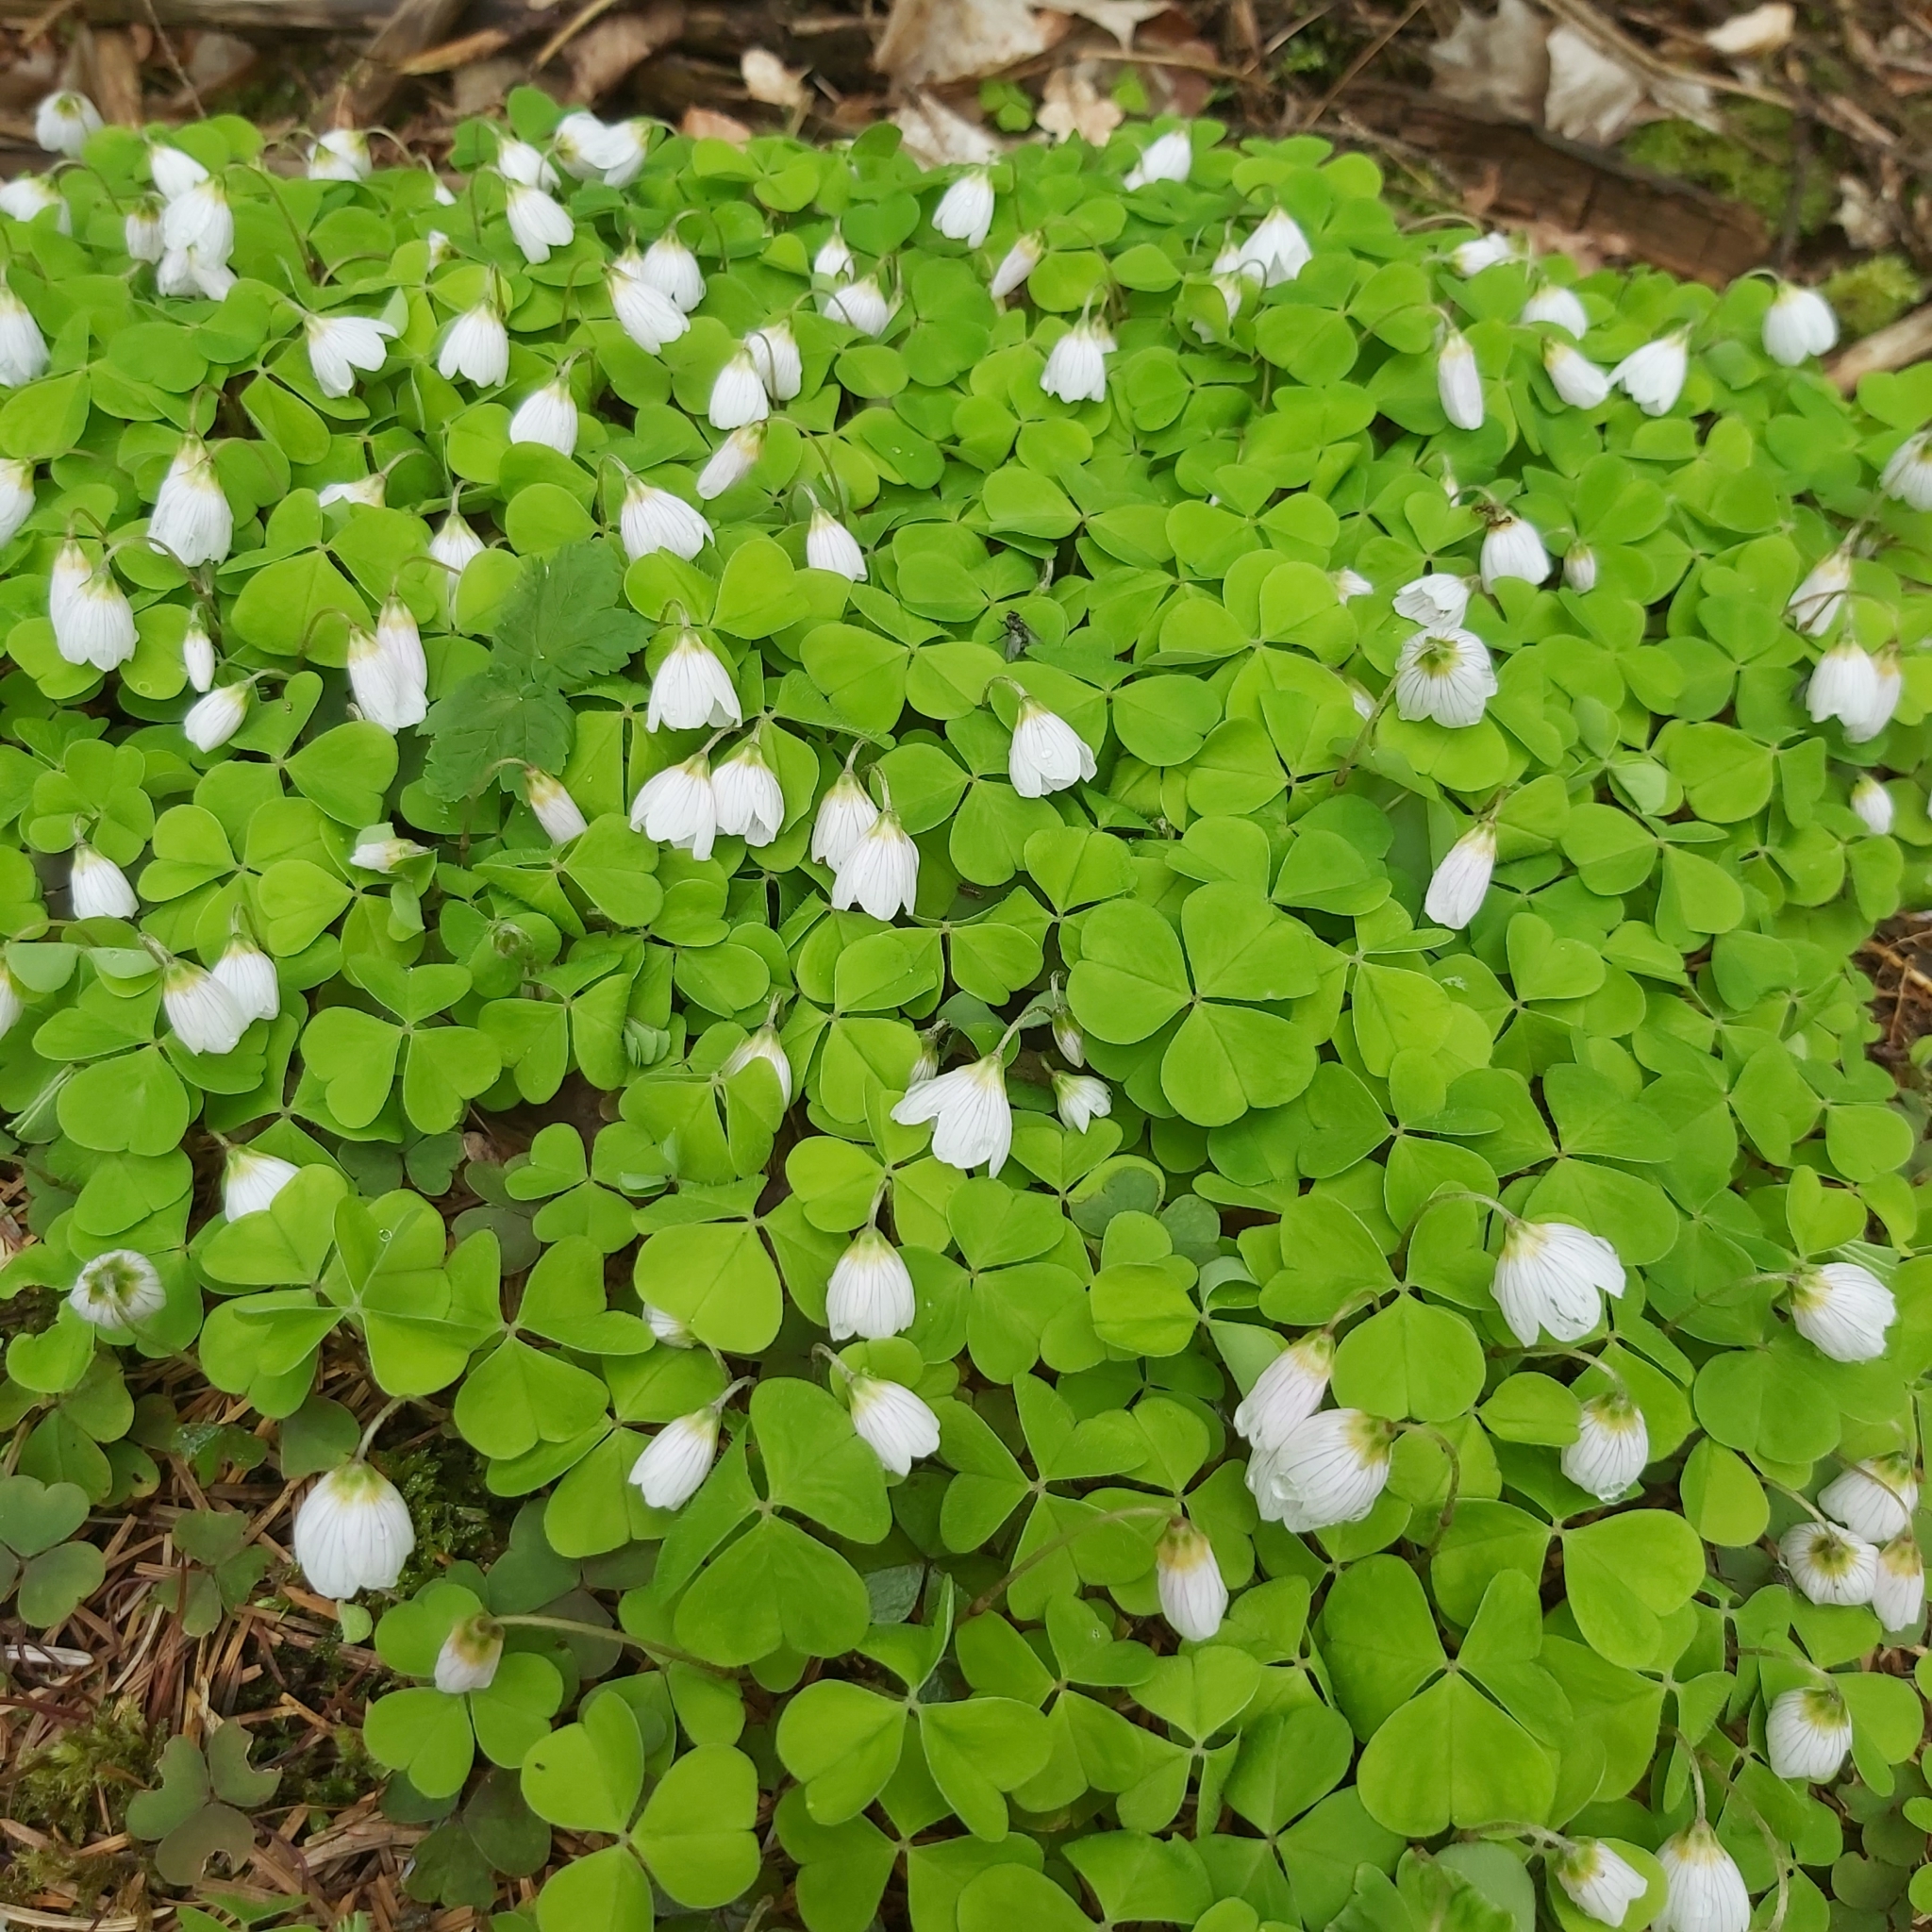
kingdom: Plantae
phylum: Tracheophyta
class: Magnoliopsida
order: Oxalidales
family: Oxalidaceae
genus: Oxalis
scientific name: Oxalis acetosella
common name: Wood-sorrel
